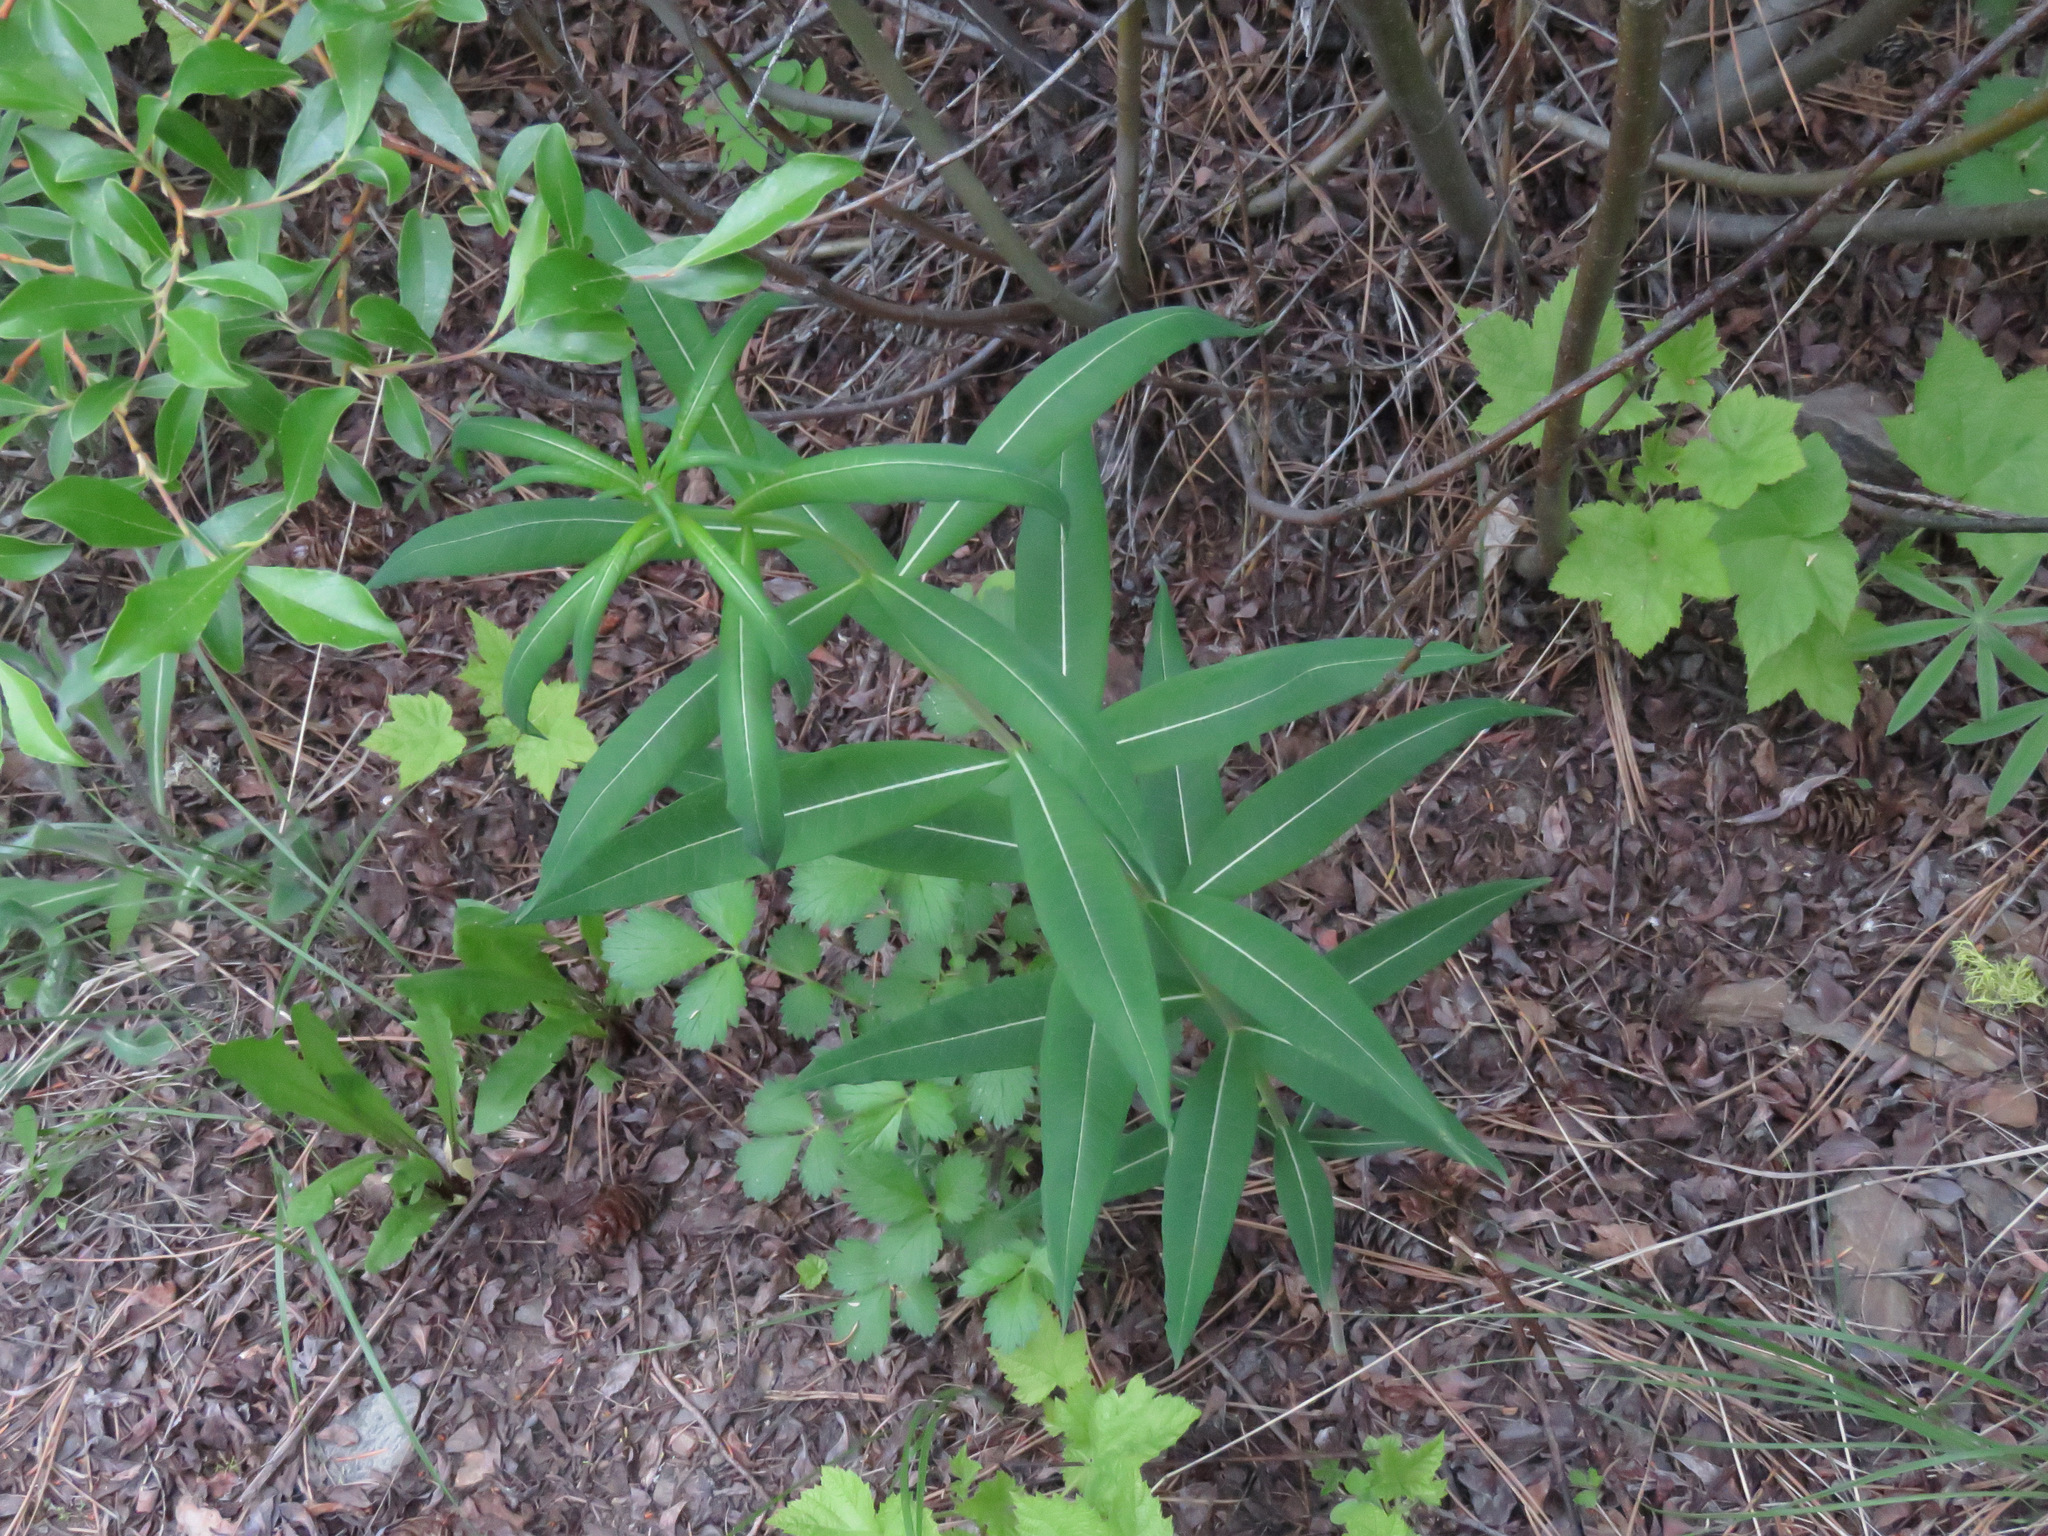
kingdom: Plantae
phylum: Tracheophyta
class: Magnoliopsida
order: Myrtales
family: Onagraceae
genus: Chamaenerion
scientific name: Chamaenerion angustifolium
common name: Fireweed
